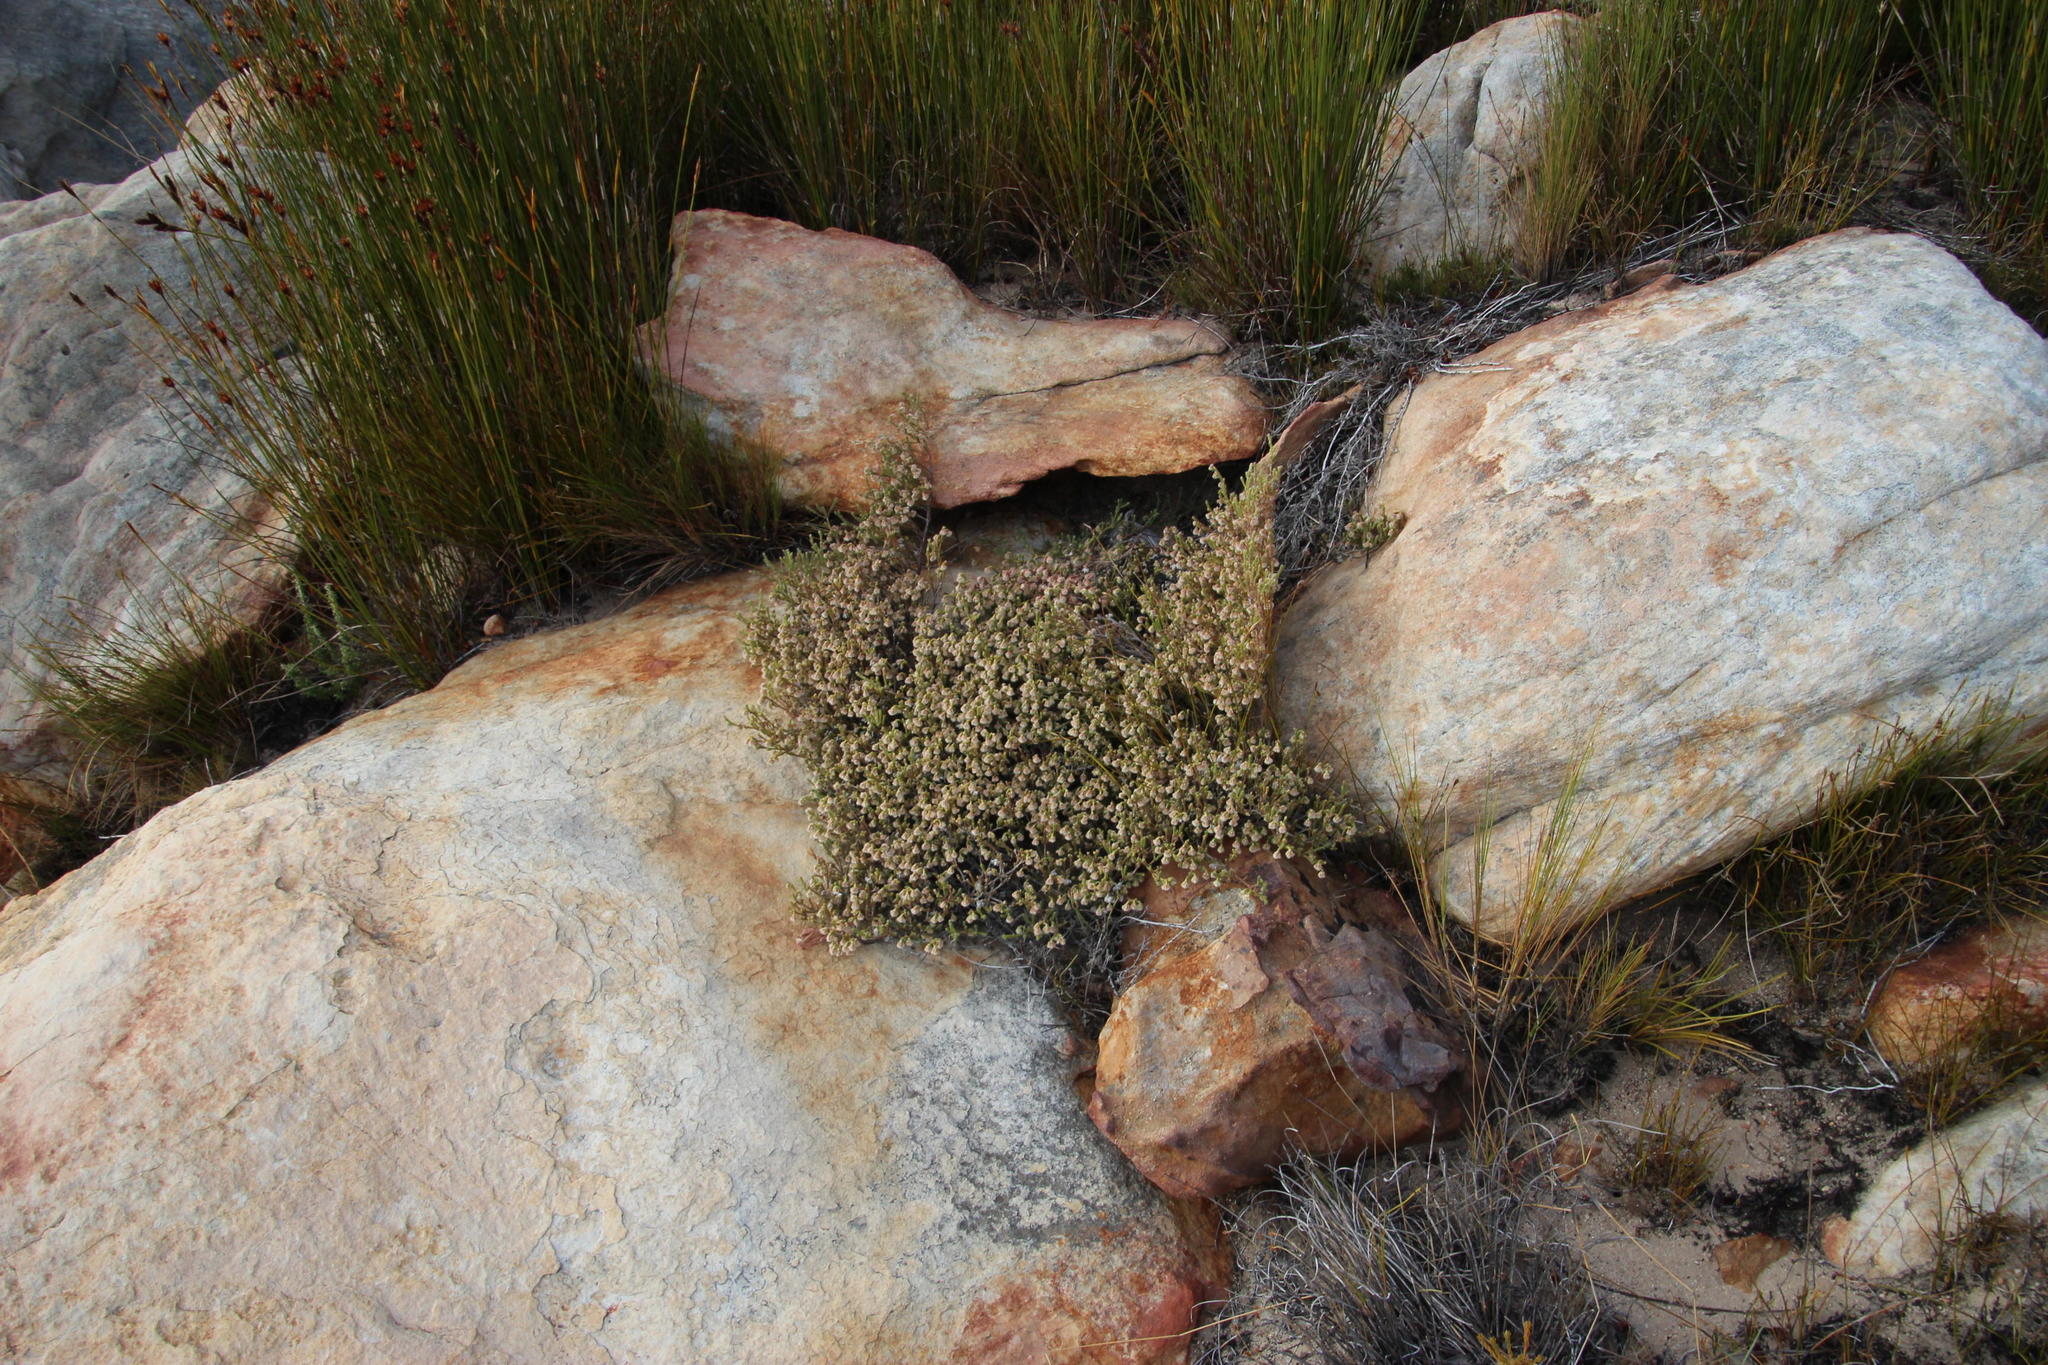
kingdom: Plantae
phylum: Tracheophyta
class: Magnoliopsida
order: Ericales
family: Ericaceae
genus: Erica
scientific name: Erica senilis
